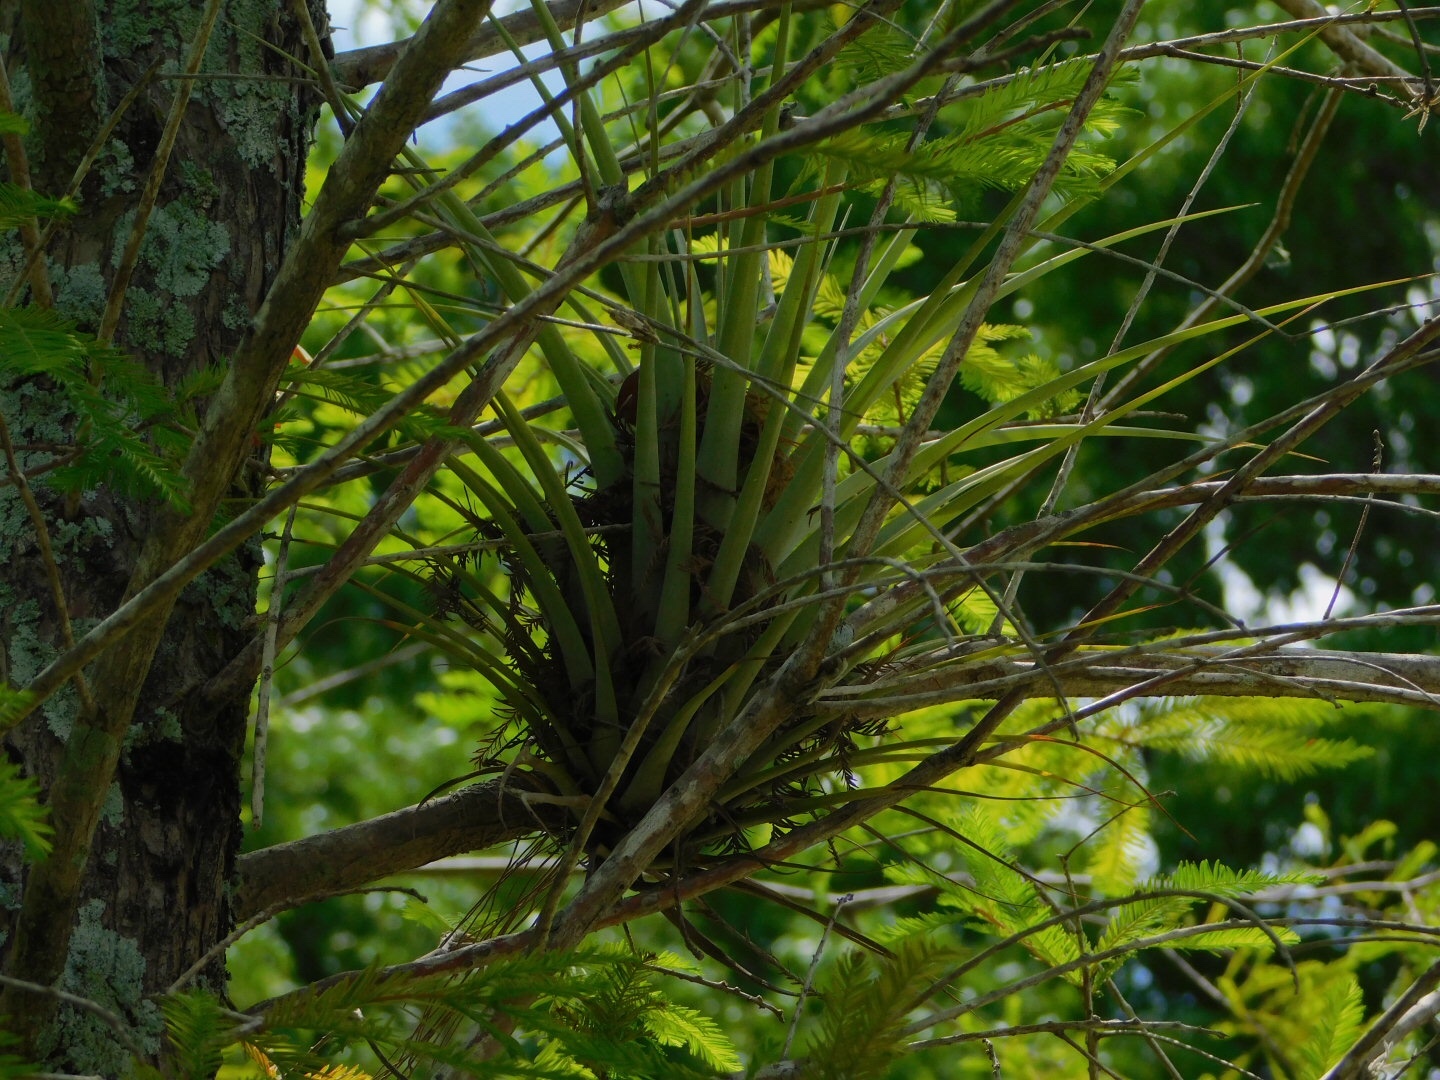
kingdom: Plantae
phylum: Tracheophyta
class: Liliopsida
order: Poales
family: Bromeliaceae
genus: Tillandsia
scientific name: Tillandsia fasciculata
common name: Giant airplant
